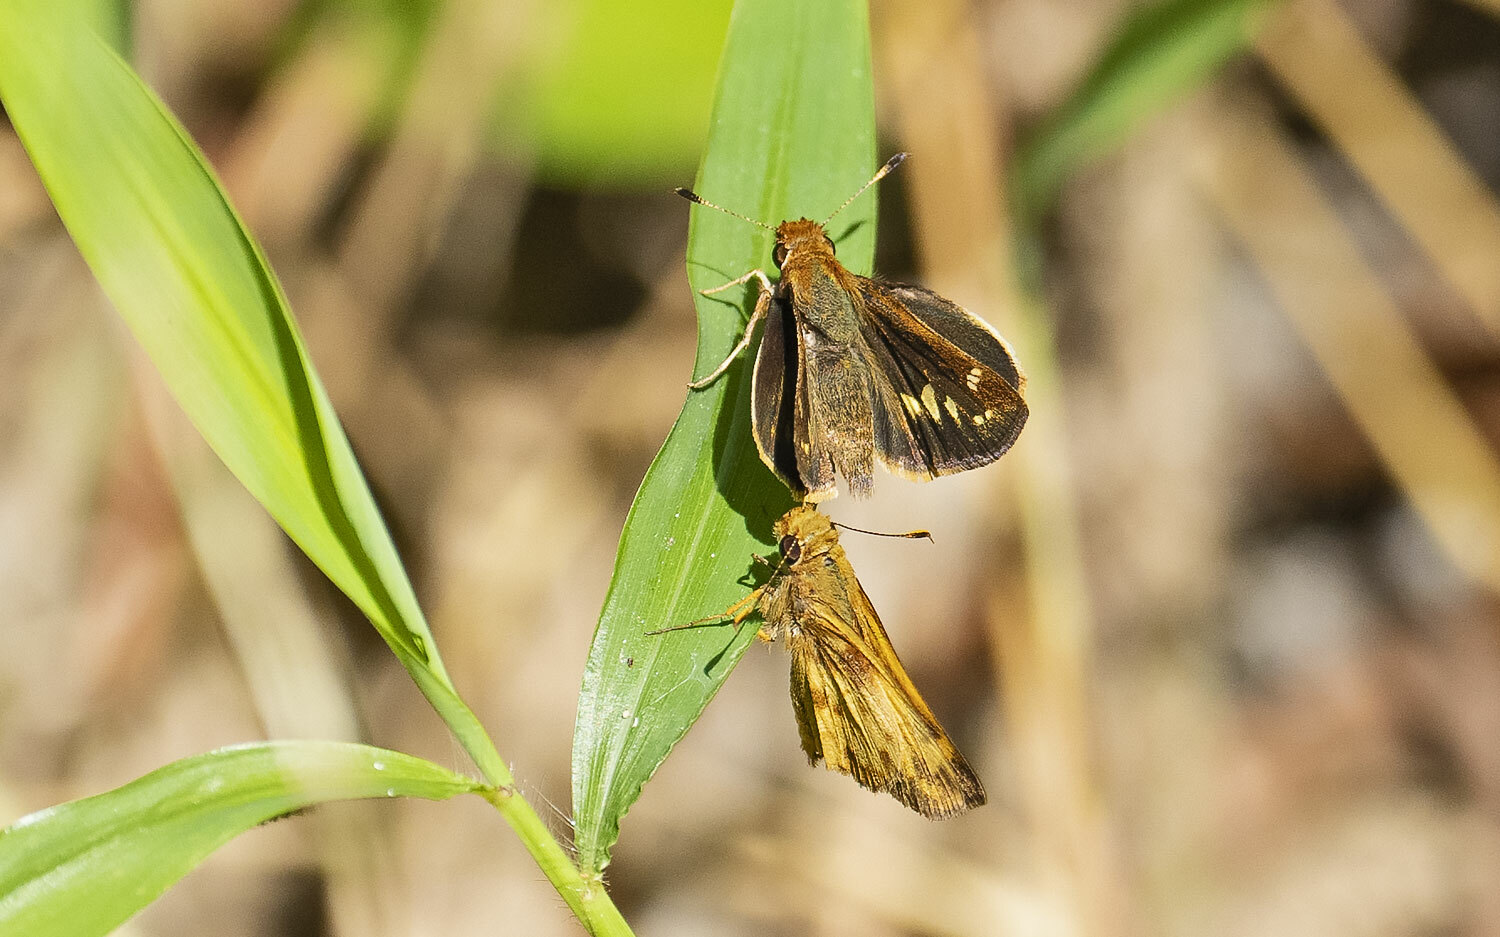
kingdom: Animalia
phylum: Arthropoda
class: Insecta
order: Lepidoptera
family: Hesperiidae
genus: Lon
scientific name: Lon zabulon
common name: Zabulon skipper
